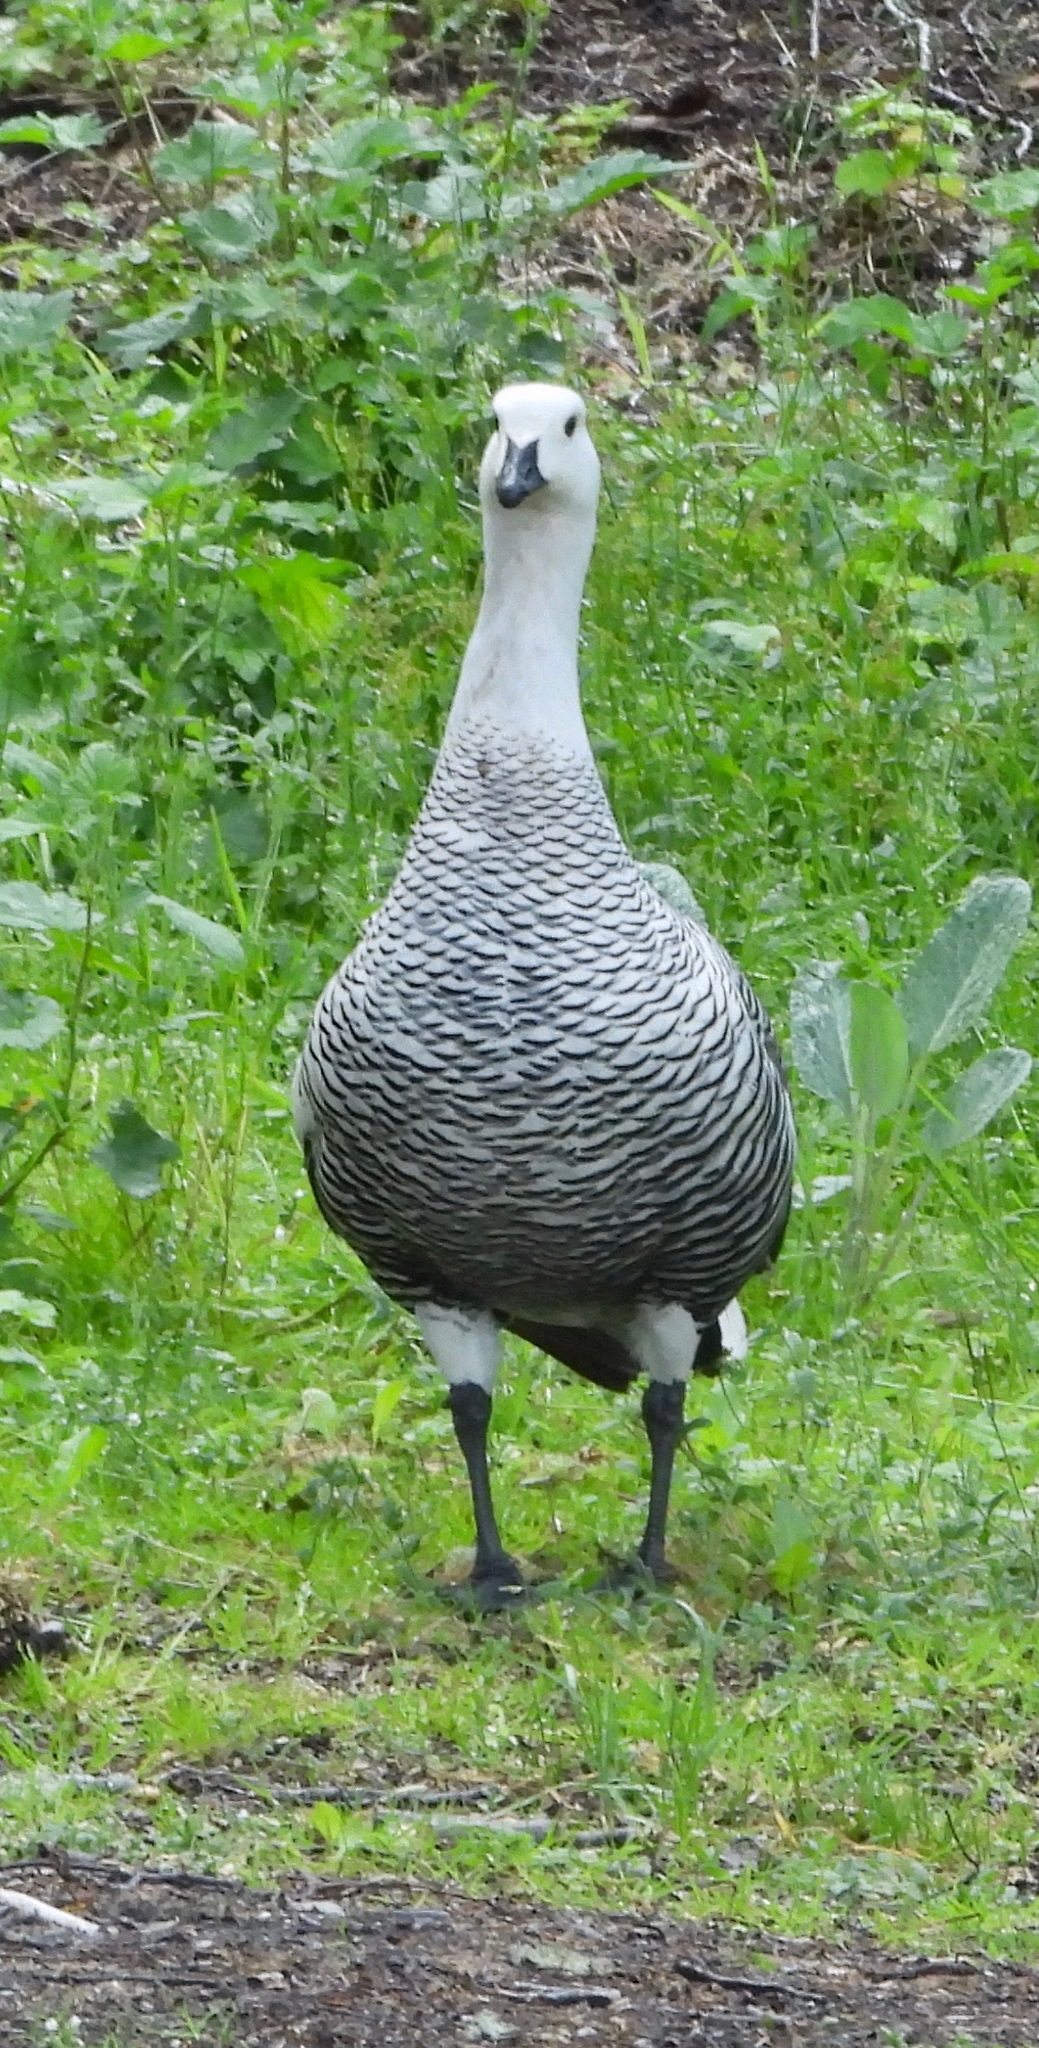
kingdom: Animalia
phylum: Chordata
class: Aves
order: Anseriformes
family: Anatidae
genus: Chloephaga
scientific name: Chloephaga picta
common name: Upland goose
